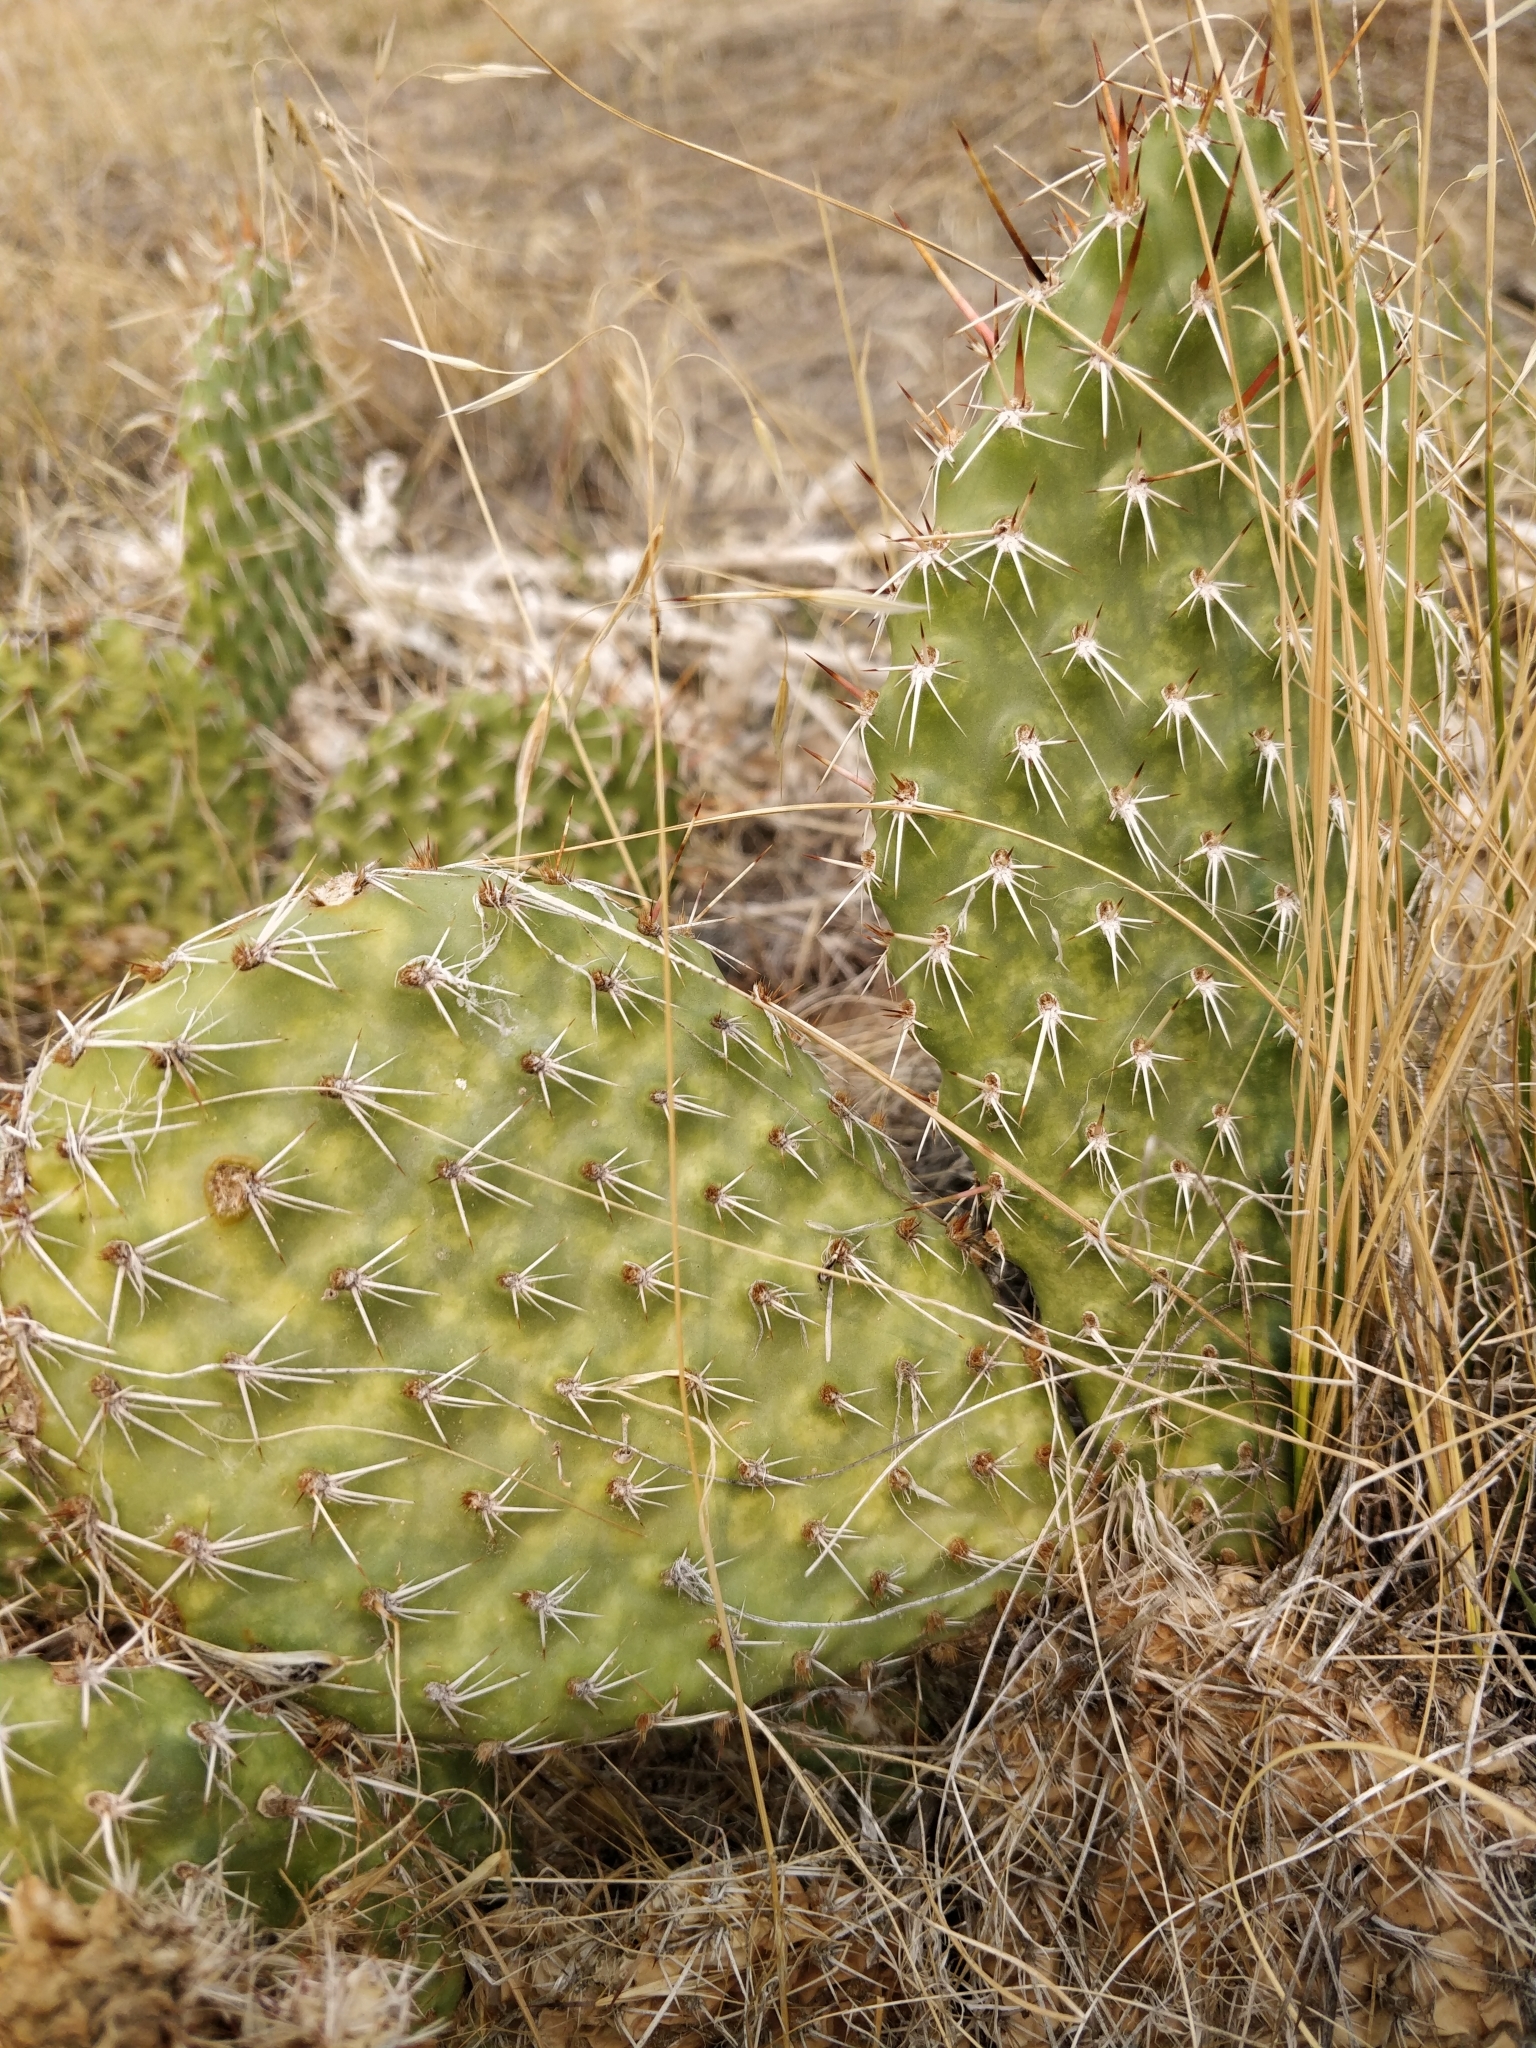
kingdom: Plantae
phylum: Tracheophyta
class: Magnoliopsida
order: Caryophyllales
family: Cactaceae
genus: Opuntia
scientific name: Opuntia polyacantha
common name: Plains prickly-pear
